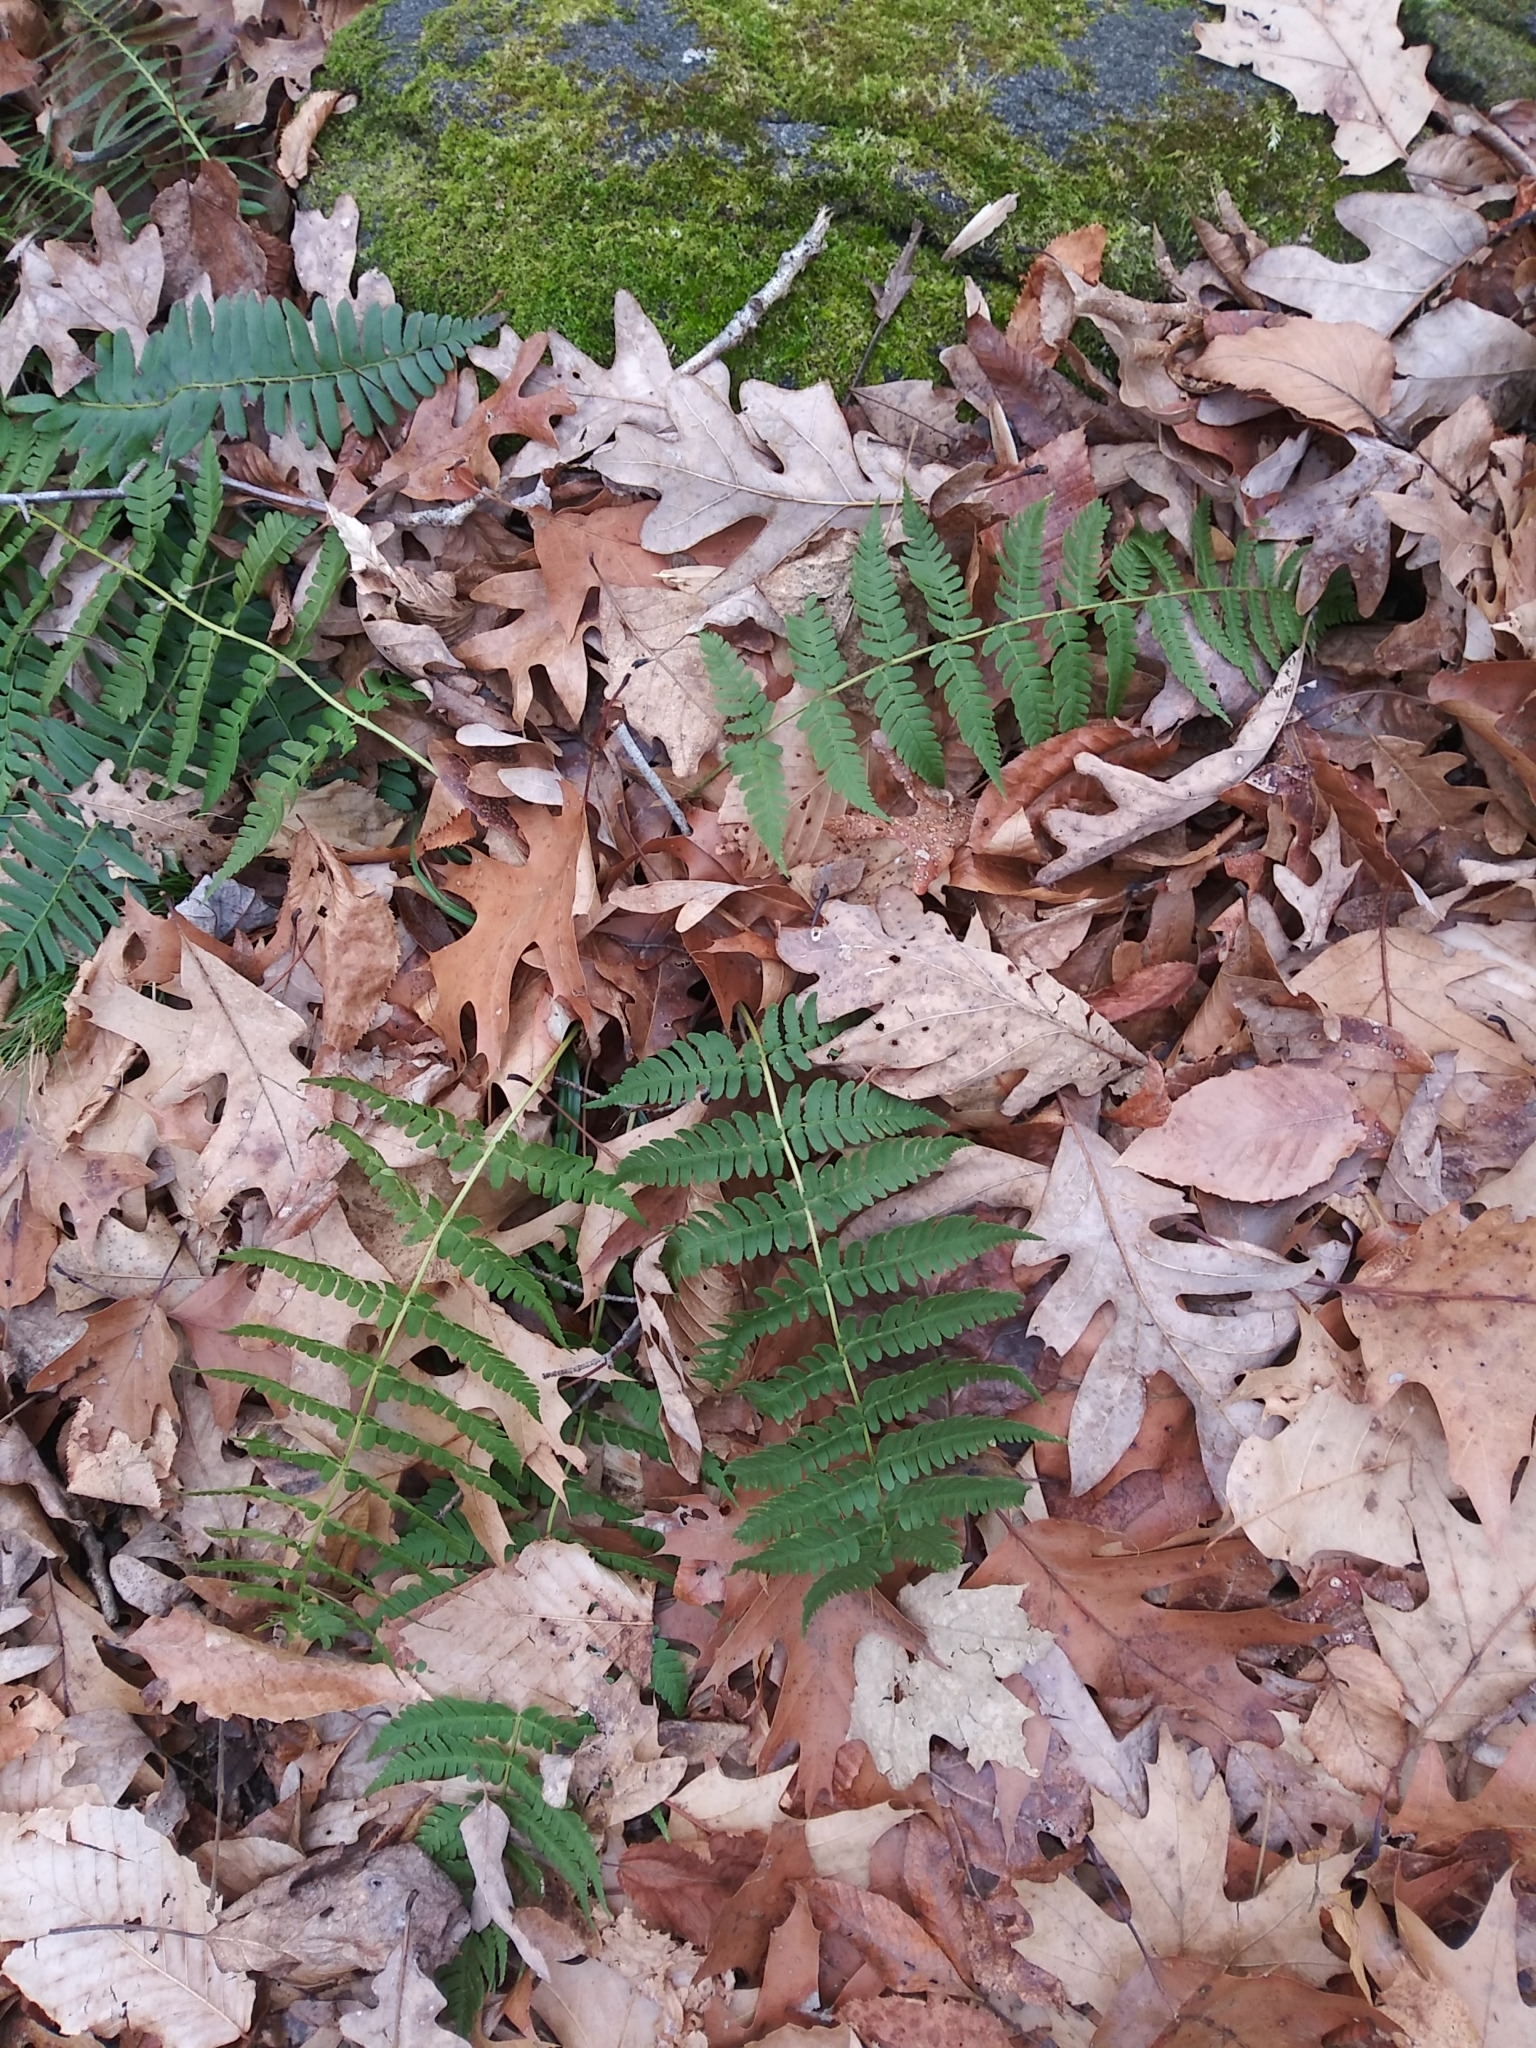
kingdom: Plantae
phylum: Tracheophyta
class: Polypodiopsida
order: Polypodiales
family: Dryopteridaceae
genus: Dryopteris
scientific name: Dryopteris marginalis
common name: Marginal wood fern
